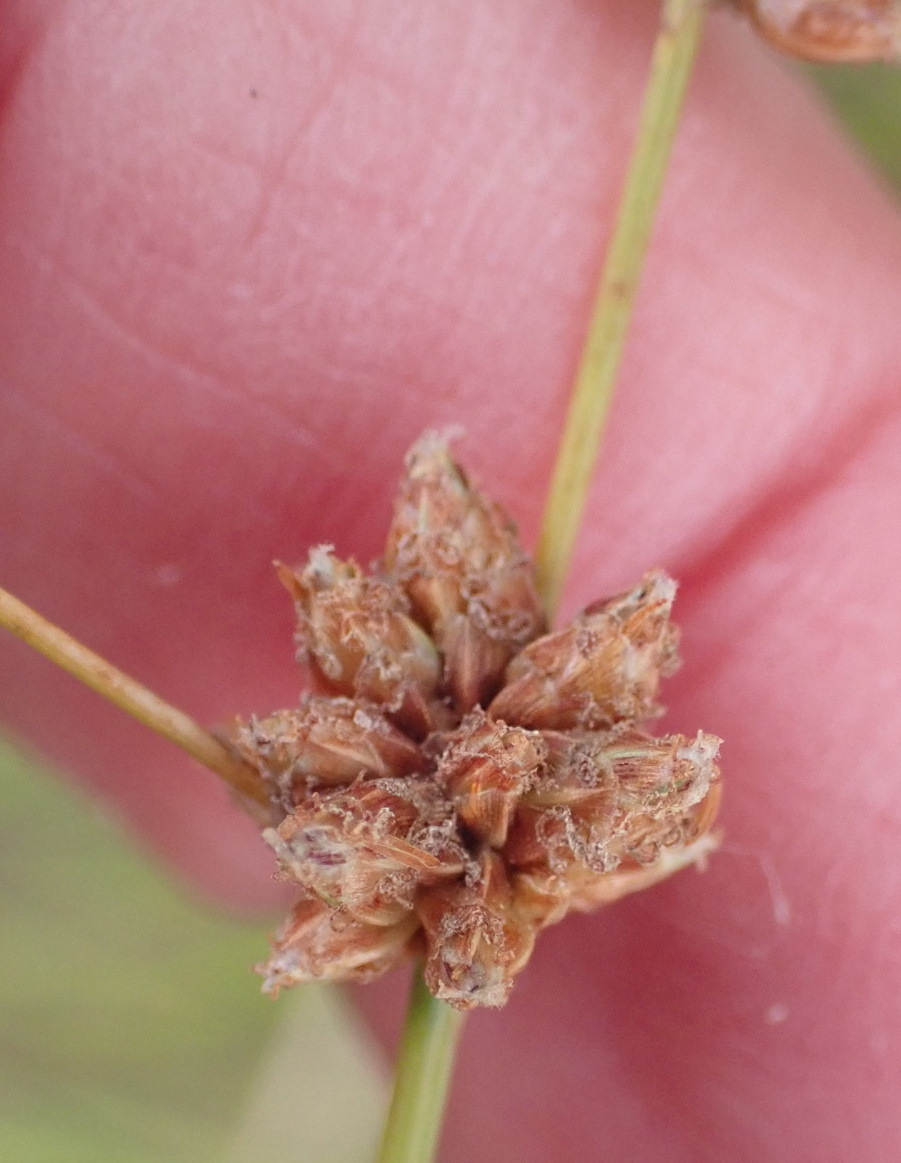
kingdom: Plantae
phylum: Tracheophyta
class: Liliopsida
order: Poales
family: Cyperaceae
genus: Ficinia
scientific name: Ficinia bulbosa
